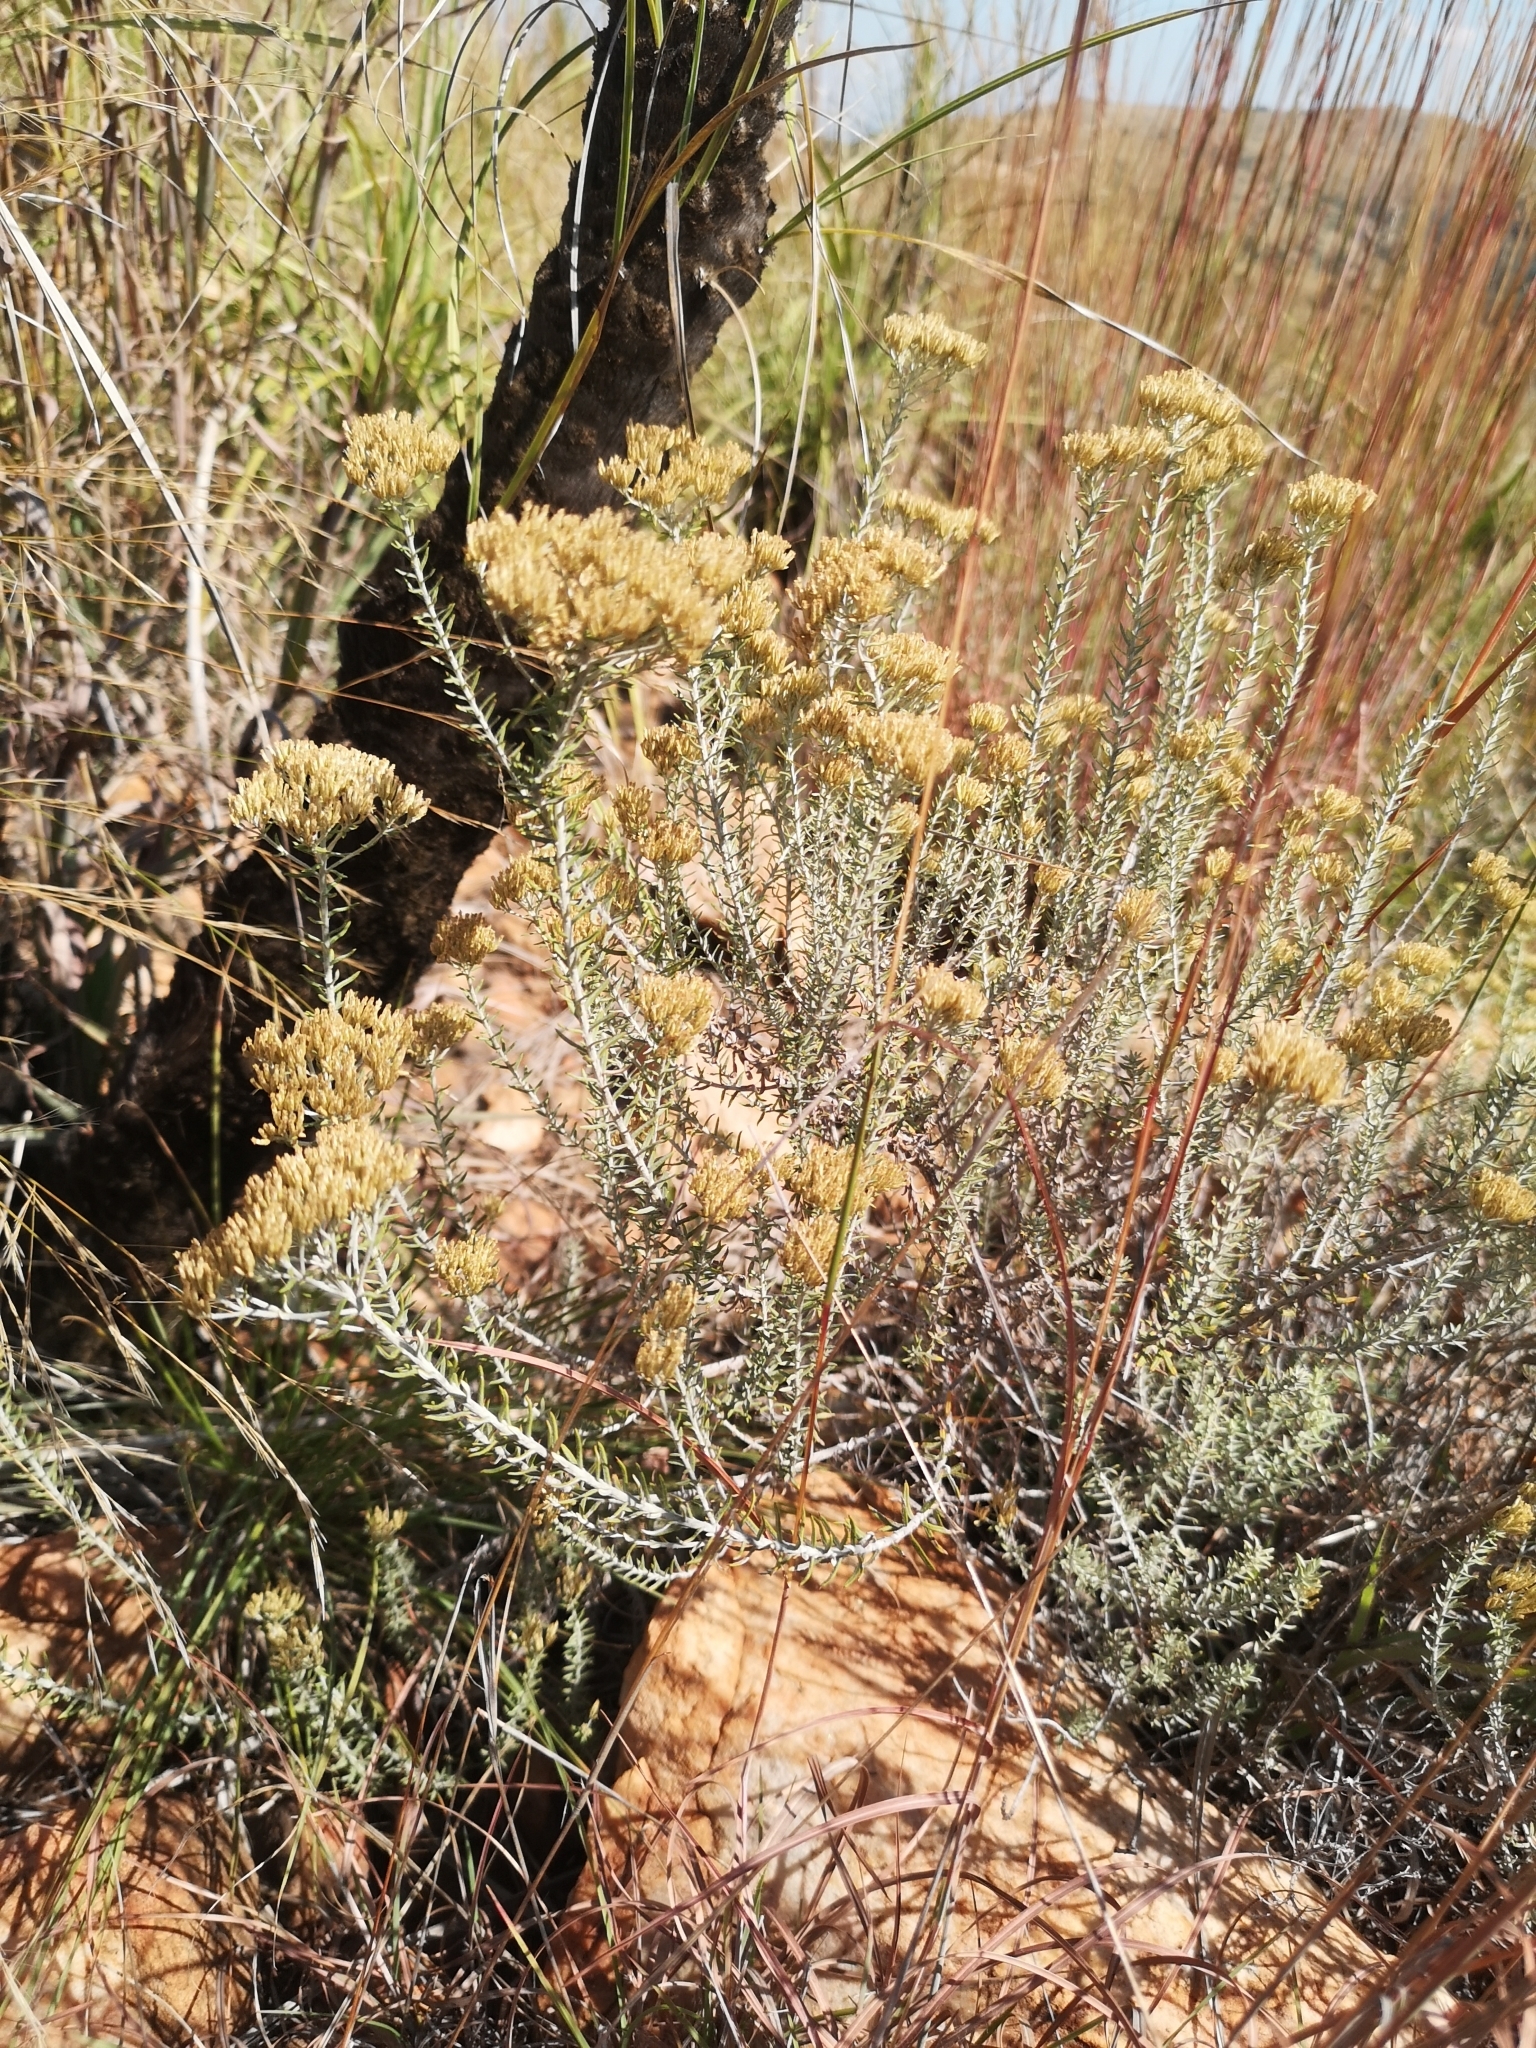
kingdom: Plantae
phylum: Tracheophyta
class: Magnoliopsida
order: Asterales
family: Asteraceae
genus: Helichrysum
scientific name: Helichrysum kraussii
